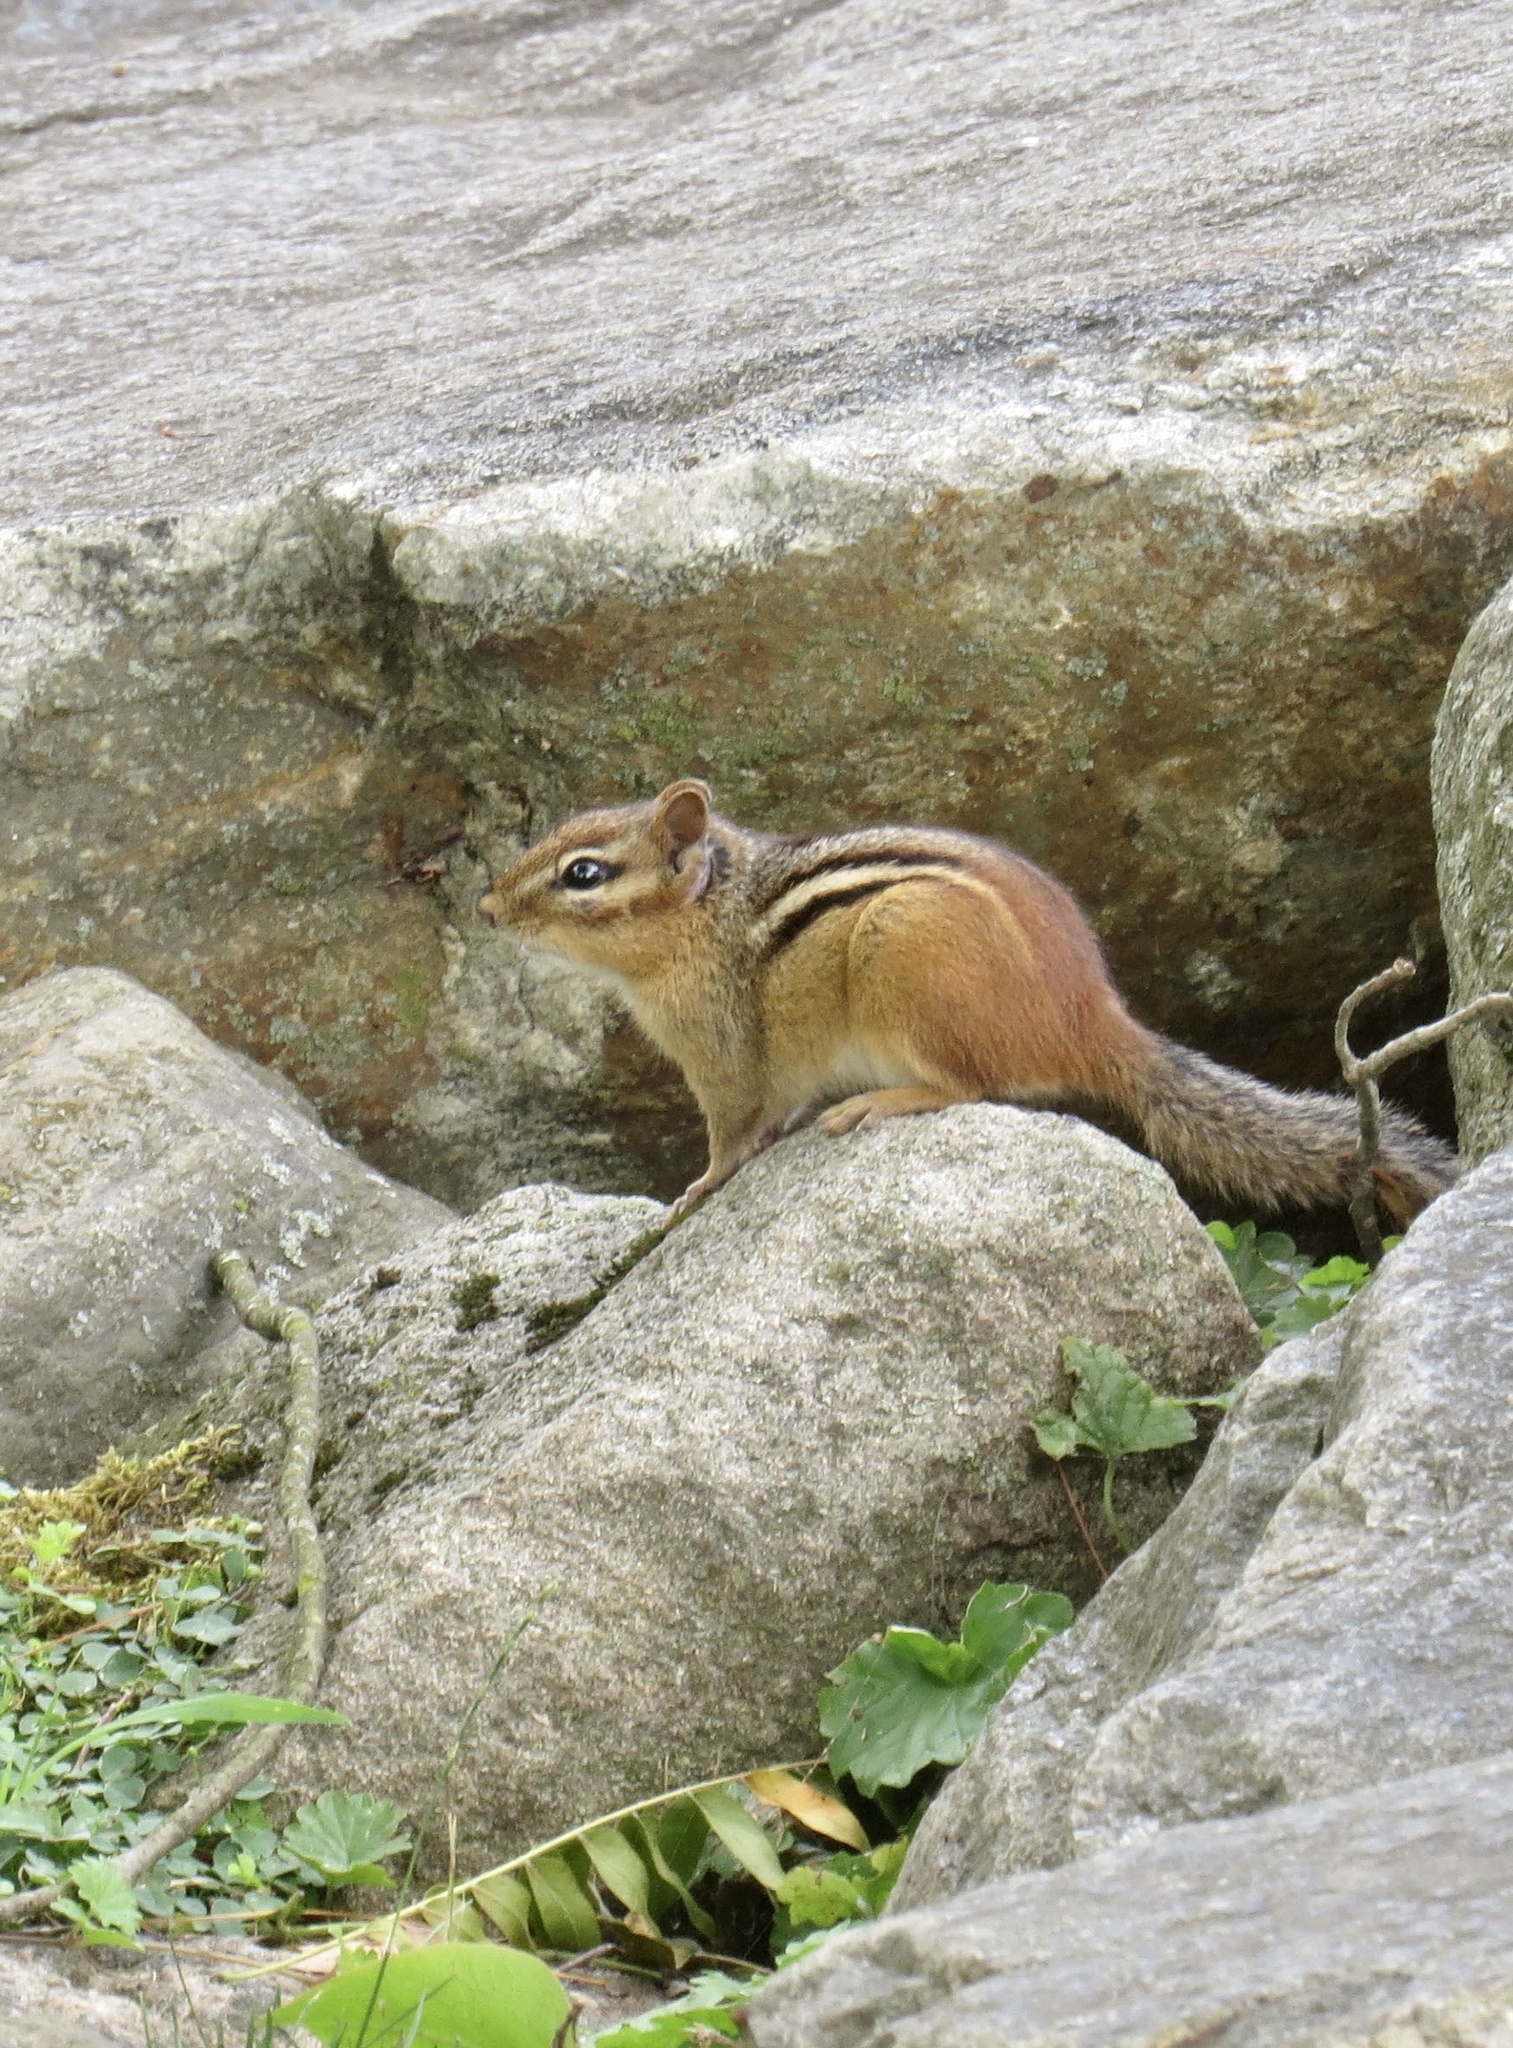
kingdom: Animalia
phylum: Chordata
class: Mammalia
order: Rodentia
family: Sciuridae
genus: Tamias
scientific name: Tamias striatus
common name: Eastern chipmunk
